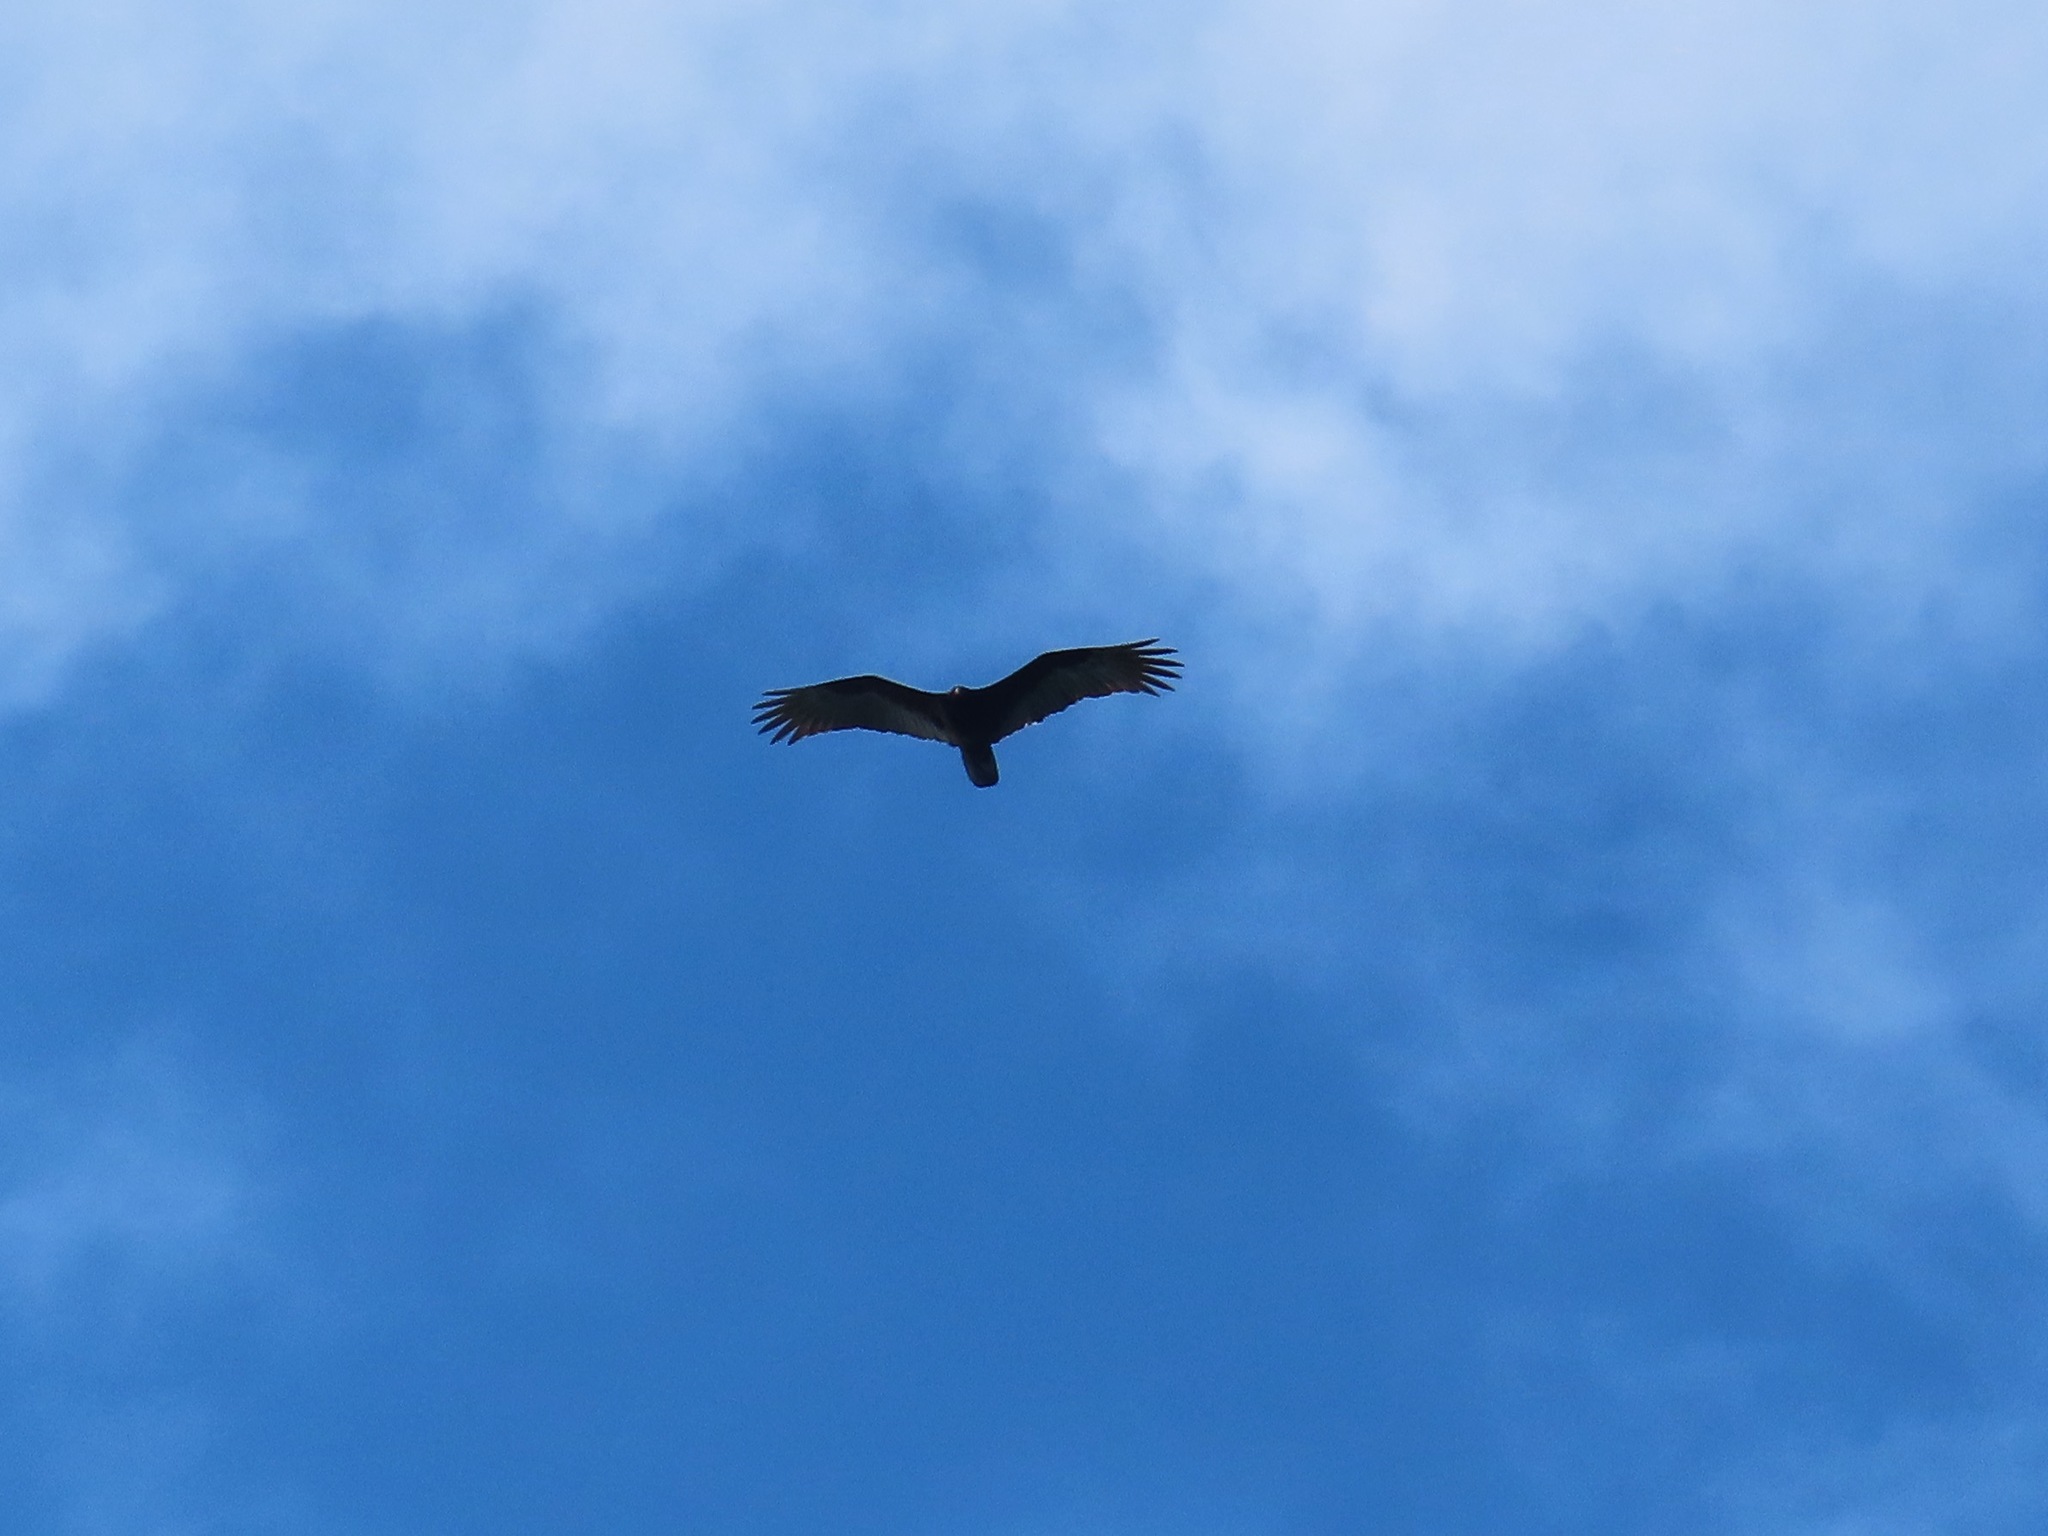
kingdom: Animalia
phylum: Chordata
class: Aves
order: Accipitriformes
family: Cathartidae
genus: Cathartes
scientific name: Cathartes aura
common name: Turkey vulture
